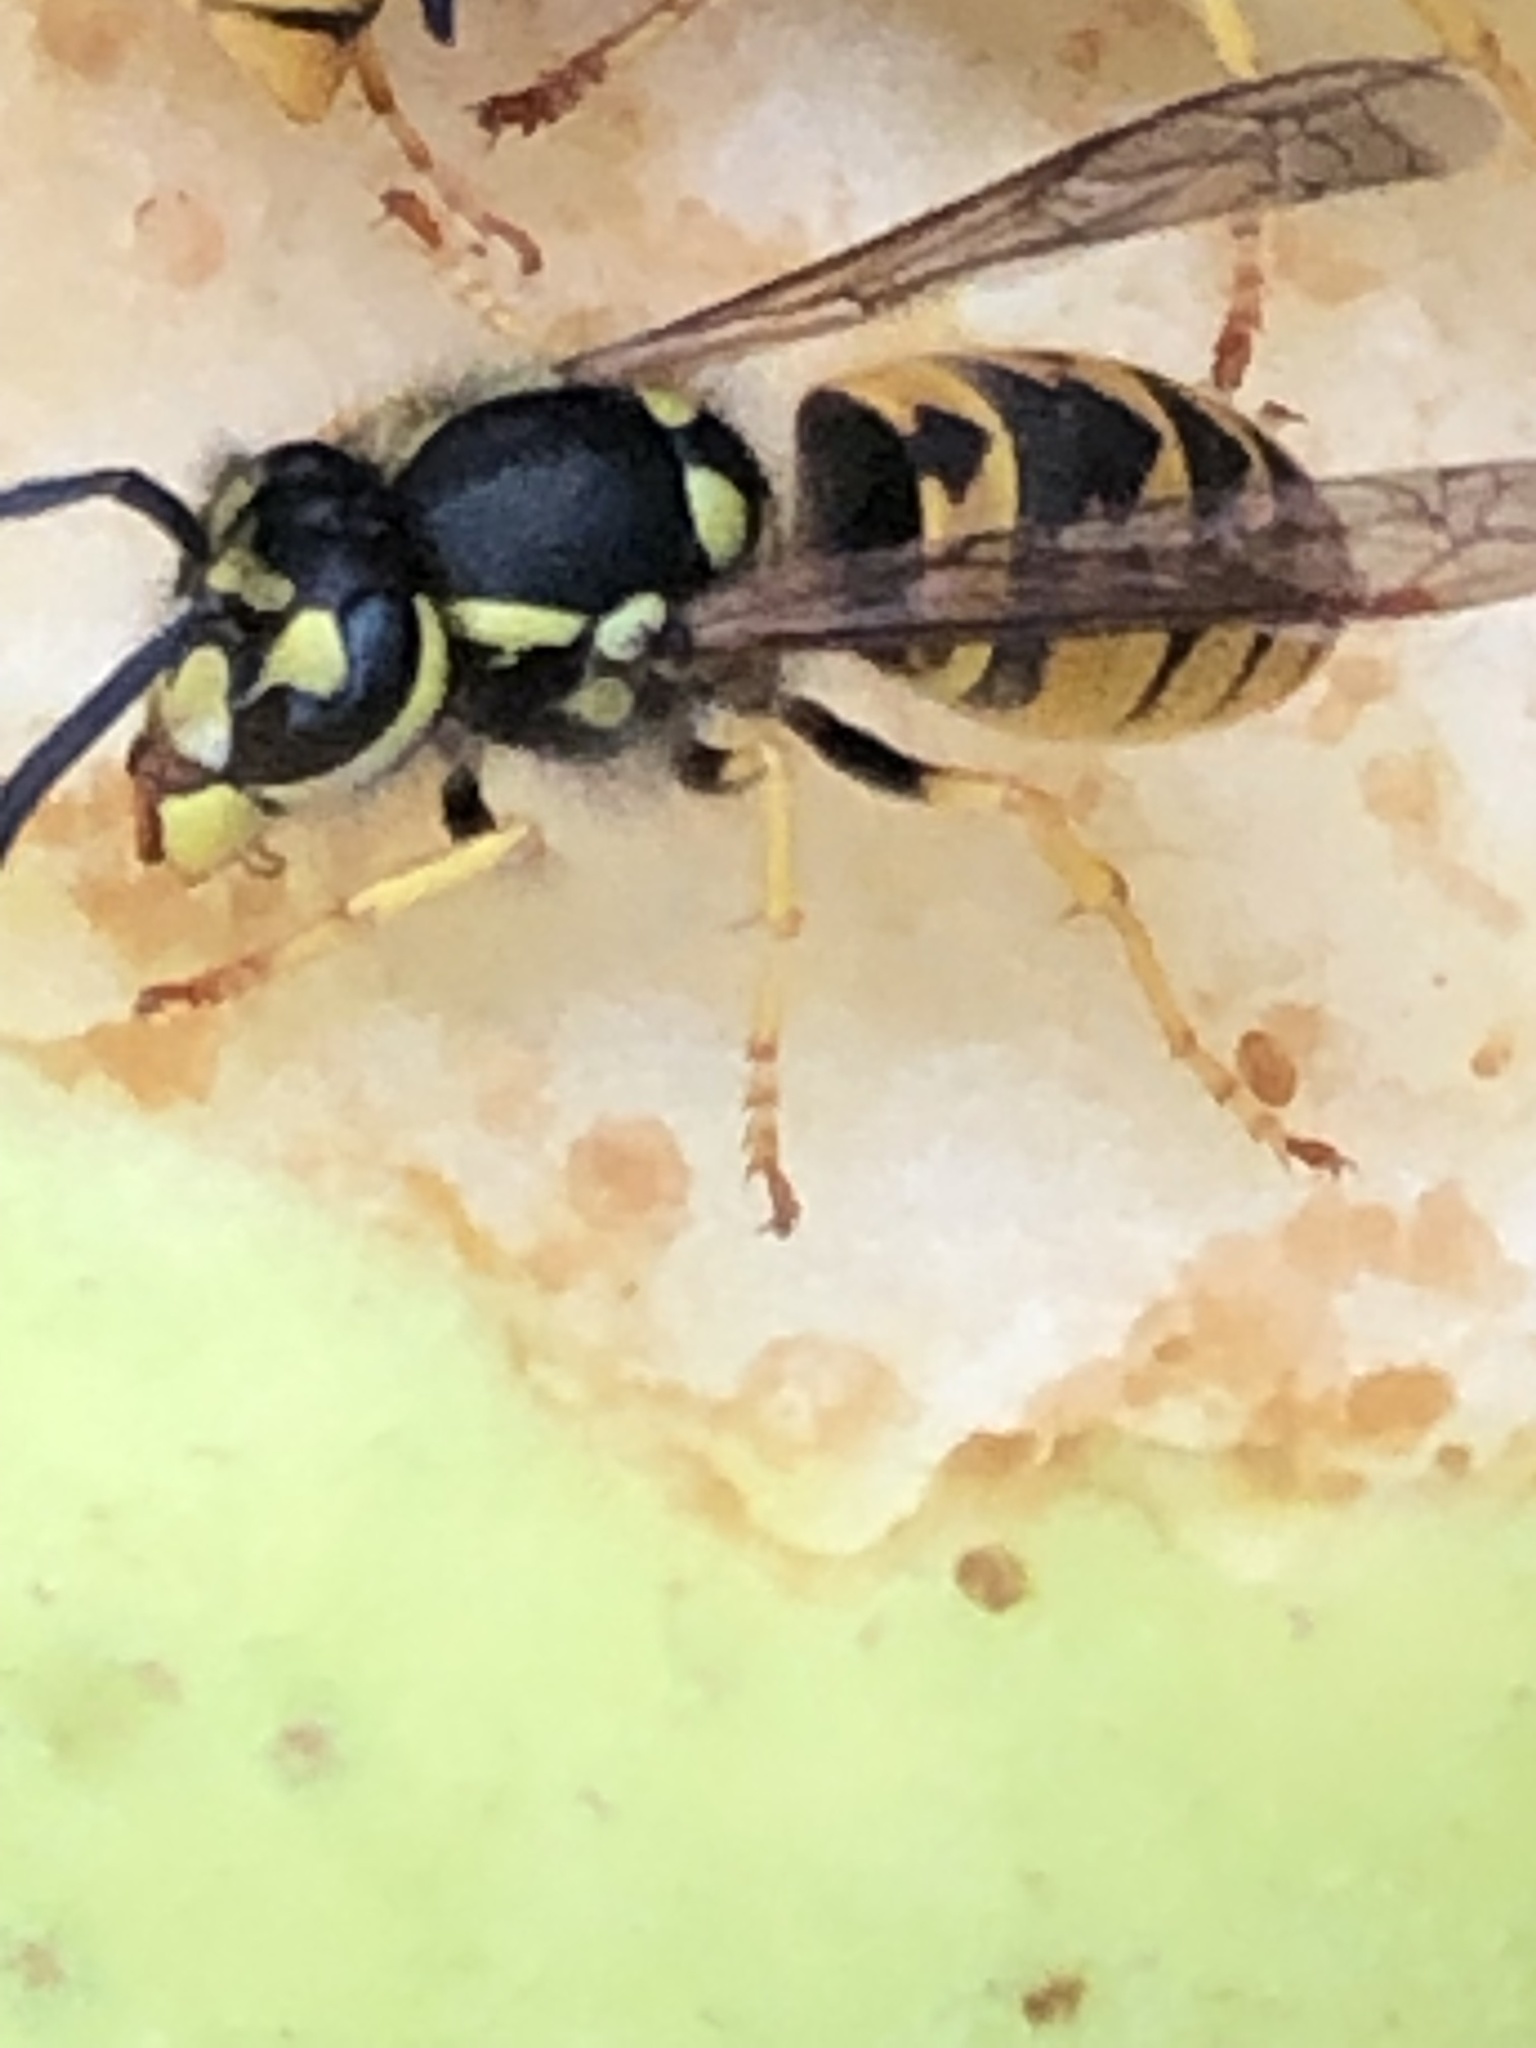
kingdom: Animalia
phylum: Arthropoda
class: Insecta
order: Hymenoptera
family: Vespidae
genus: Vespula
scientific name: Vespula germanica
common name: German wasp
